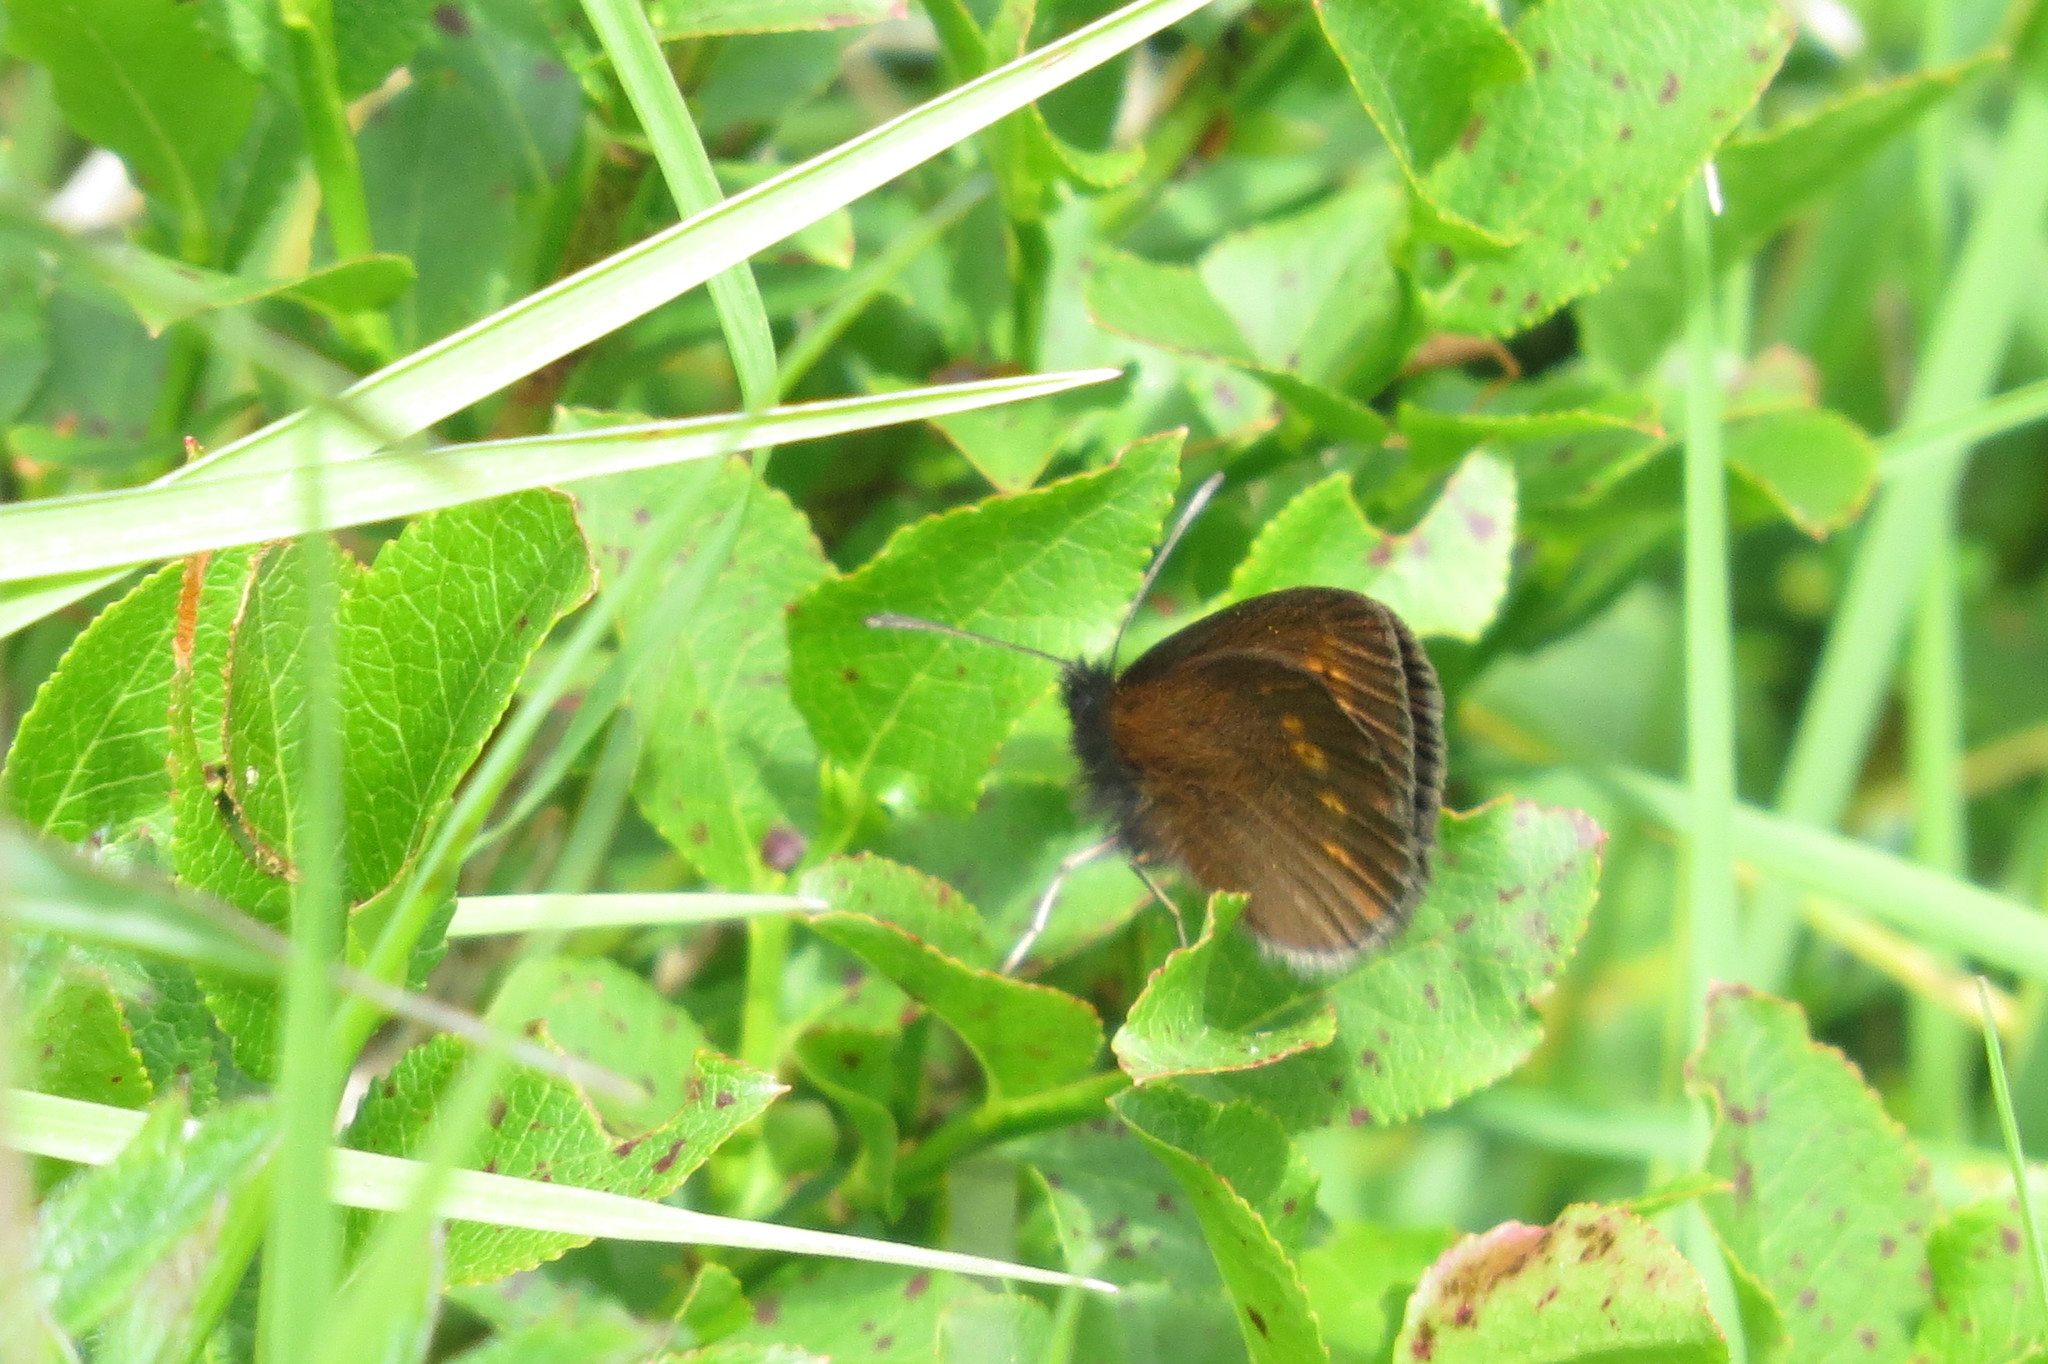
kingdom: Animalia
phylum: Arthropoda
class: Insecta
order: Lepidoptera
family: Nymphalidae
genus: Erebia
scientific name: Erebia melampus
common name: Lesser mountain ringlet
